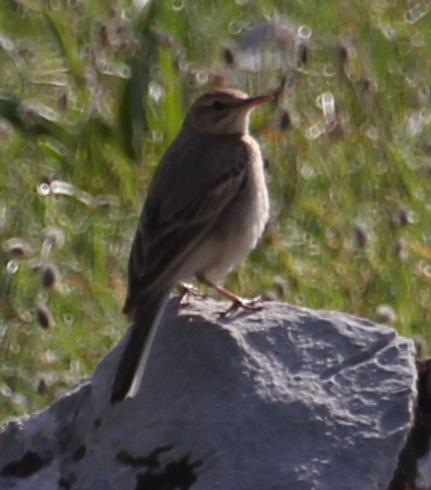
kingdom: Animalia
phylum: Chordata
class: Aves
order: Passeriformes
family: Motacillidae
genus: Anthus
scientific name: Anthus campestris
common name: Tawny pipit
